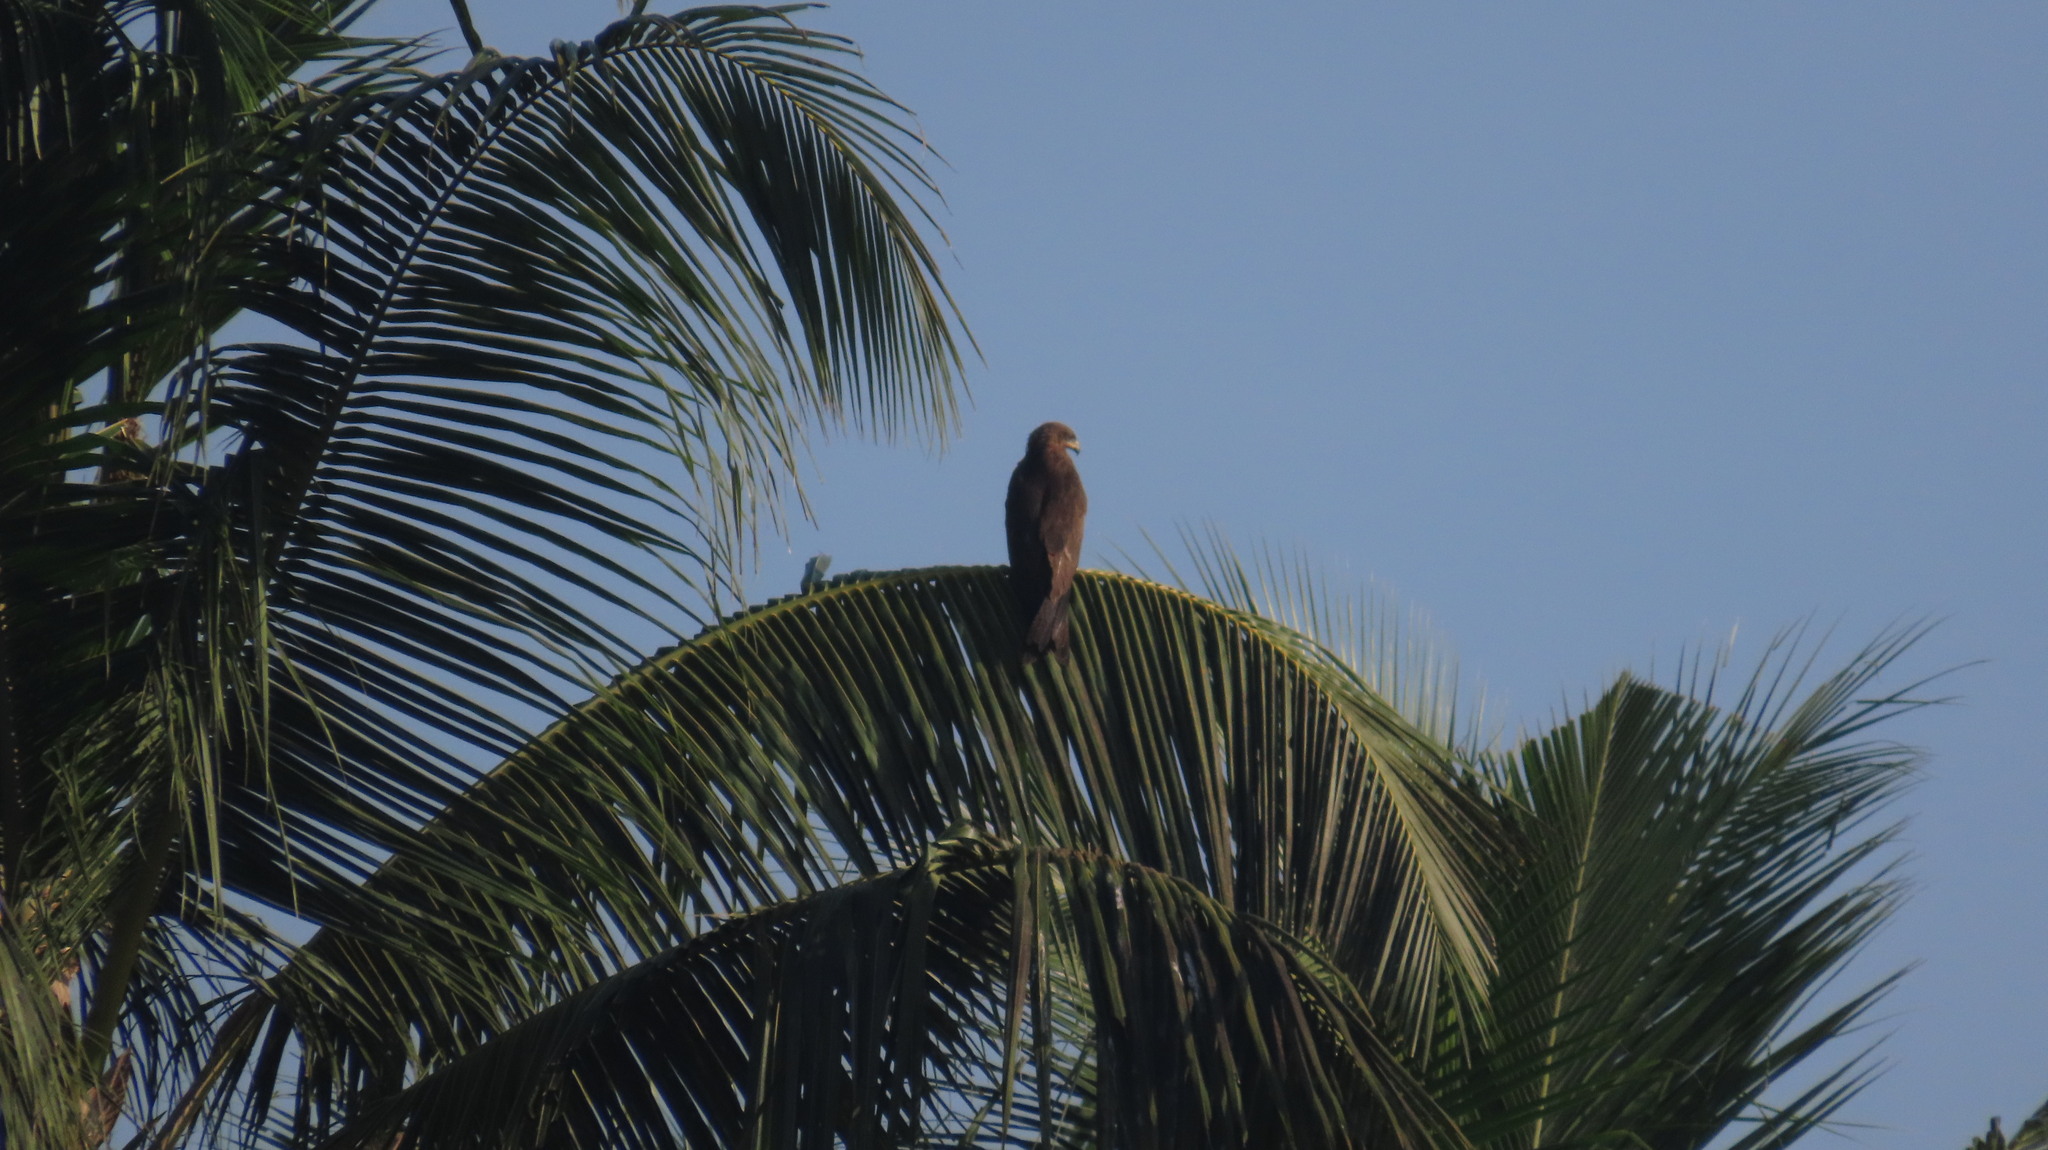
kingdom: Animalia
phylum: Chordata
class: Aves
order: Accipitriformes
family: Accipitridae
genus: Milvus
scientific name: Milvus migrans
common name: Black kite
